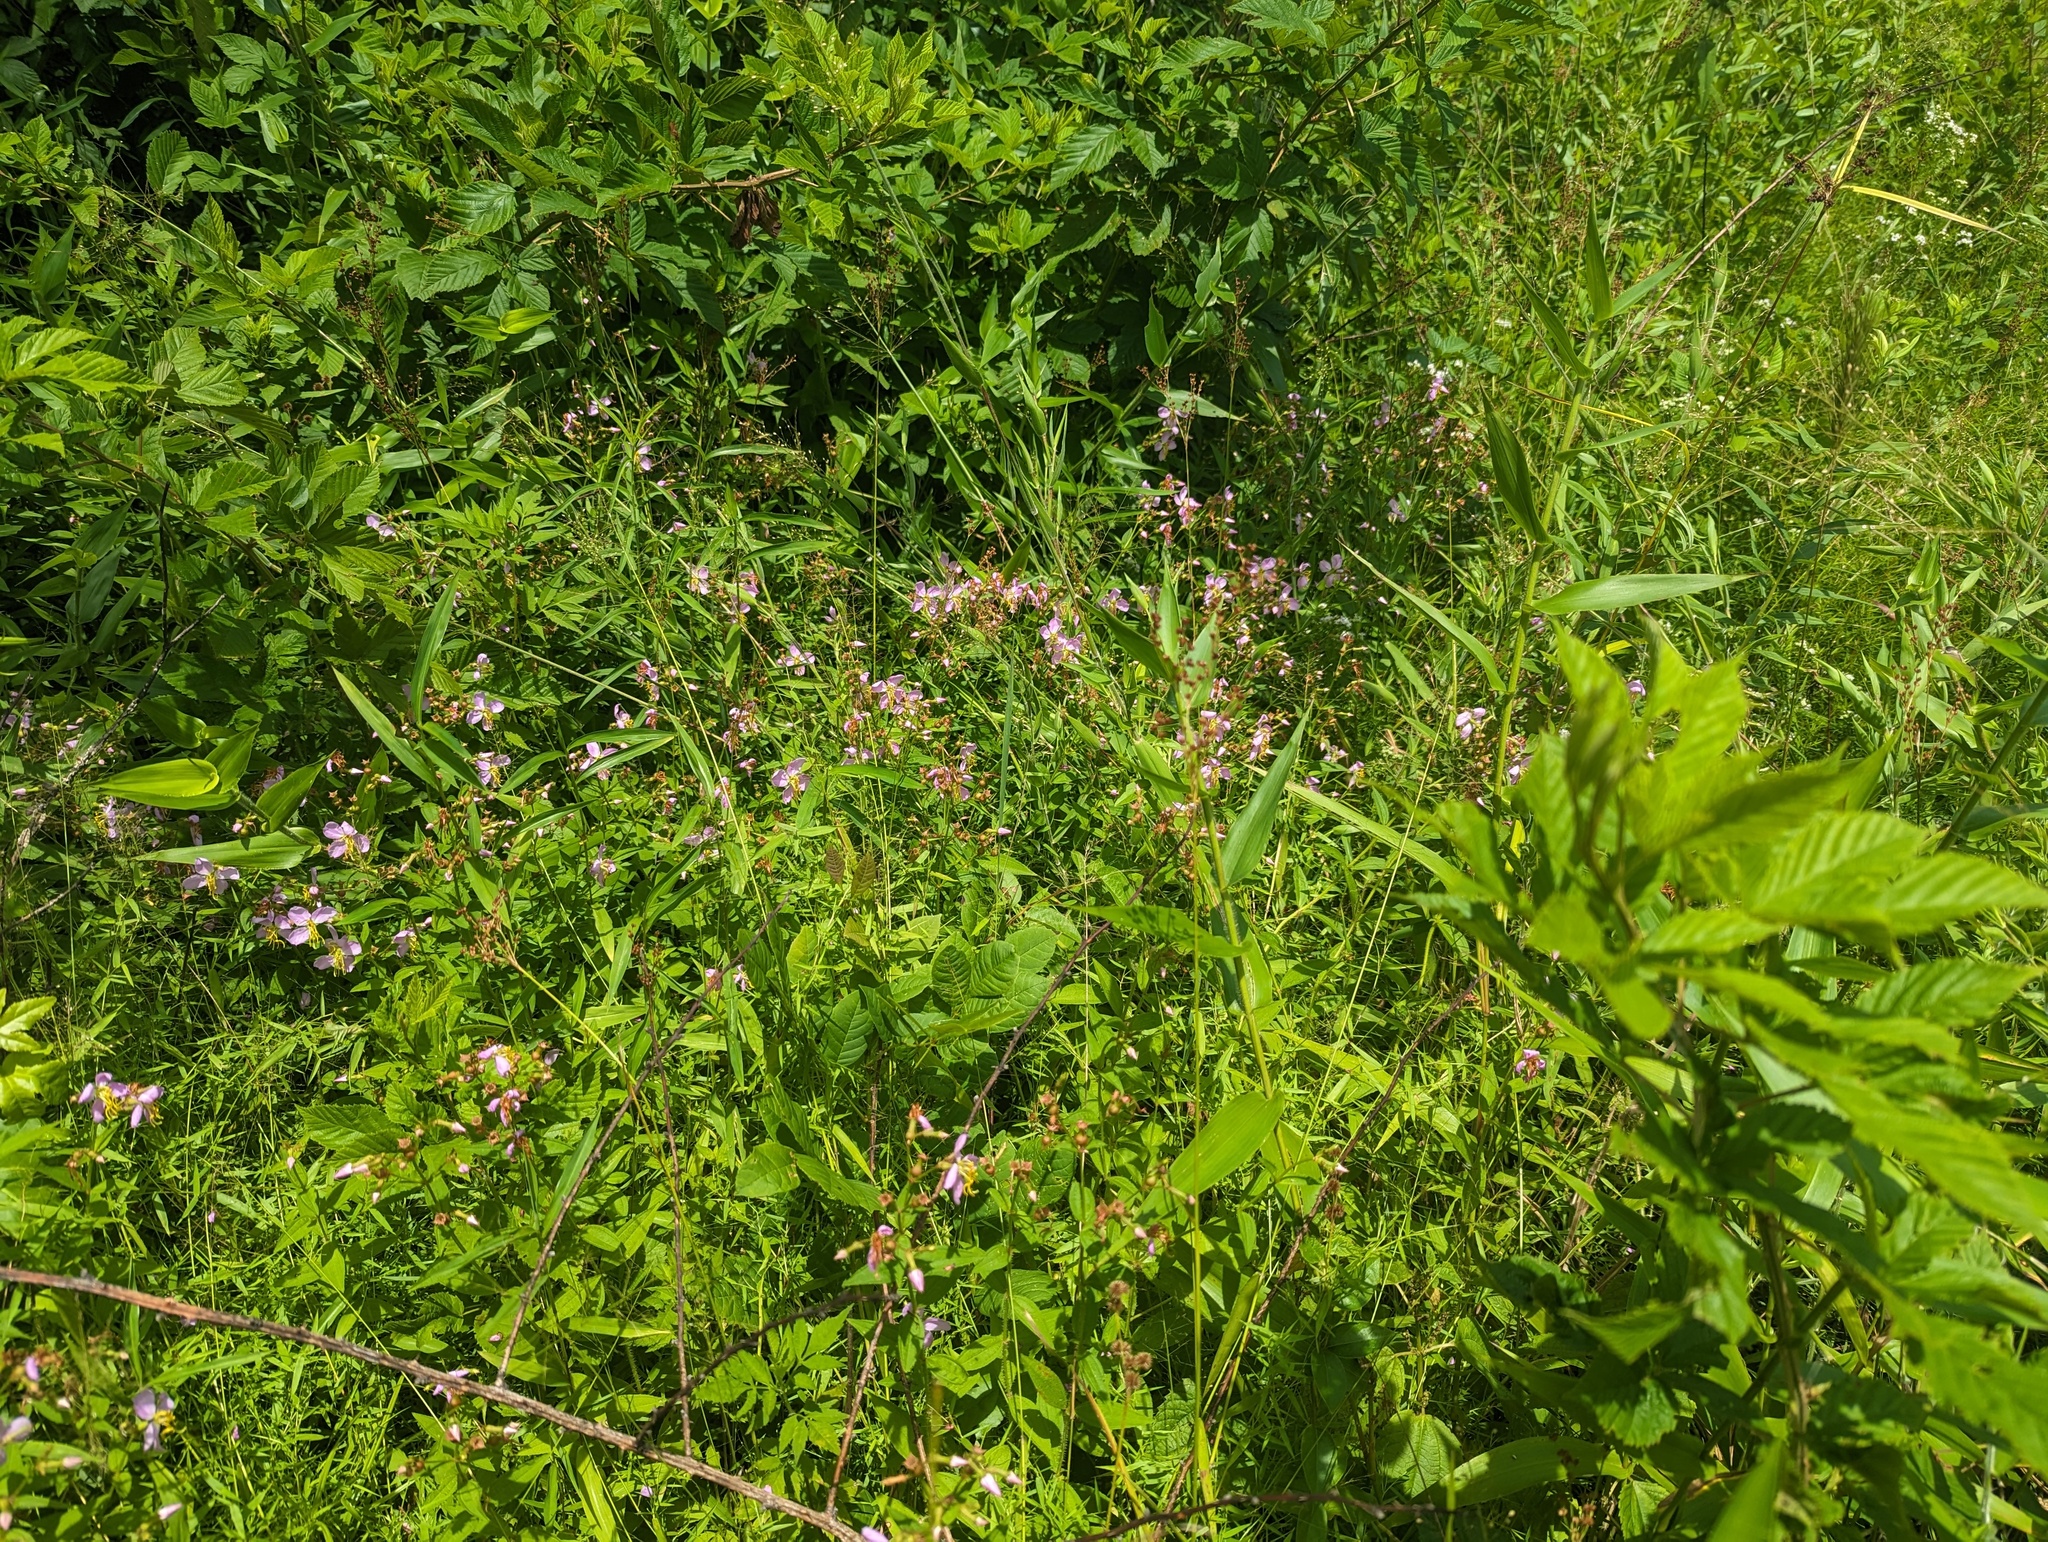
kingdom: Plantae
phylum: Tracheophyta
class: Magnoliopsida
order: Myrtales
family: Melastomataceae
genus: Rhexia
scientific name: Rhexia mariana
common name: Dull meadow-pitcher
